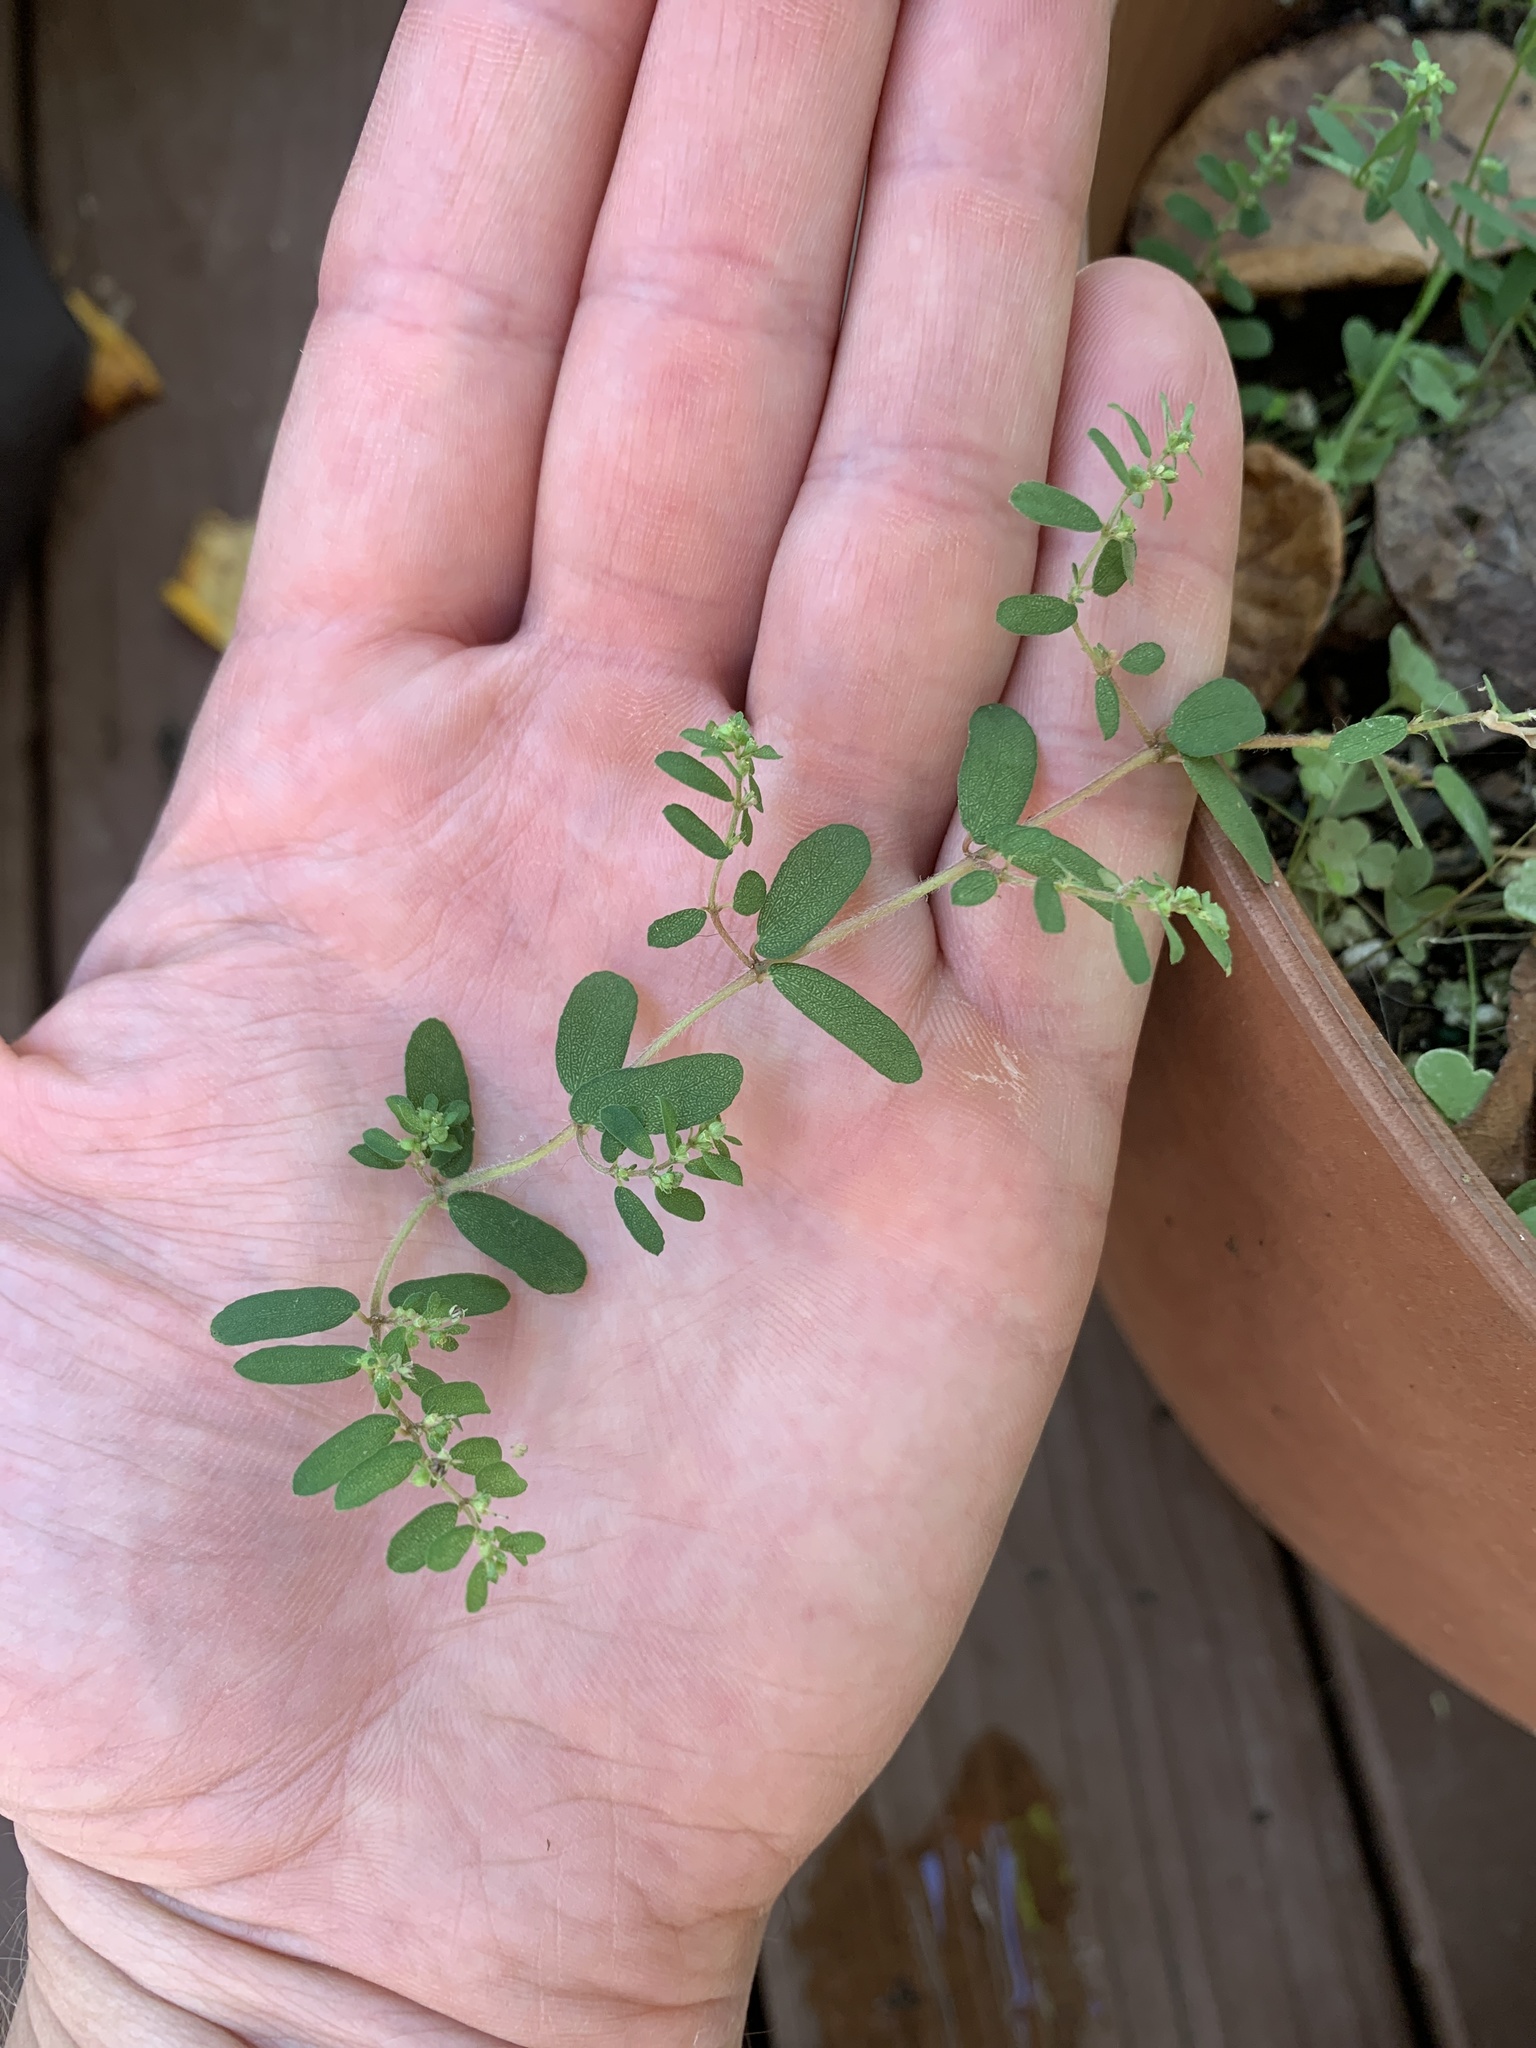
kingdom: Plantae
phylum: Tracheophyta
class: Magnoliopsida
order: Malpighiales
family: Euphorbiaceae
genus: Euphorbia
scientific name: Euphorbia maculata
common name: Spotted spurge
